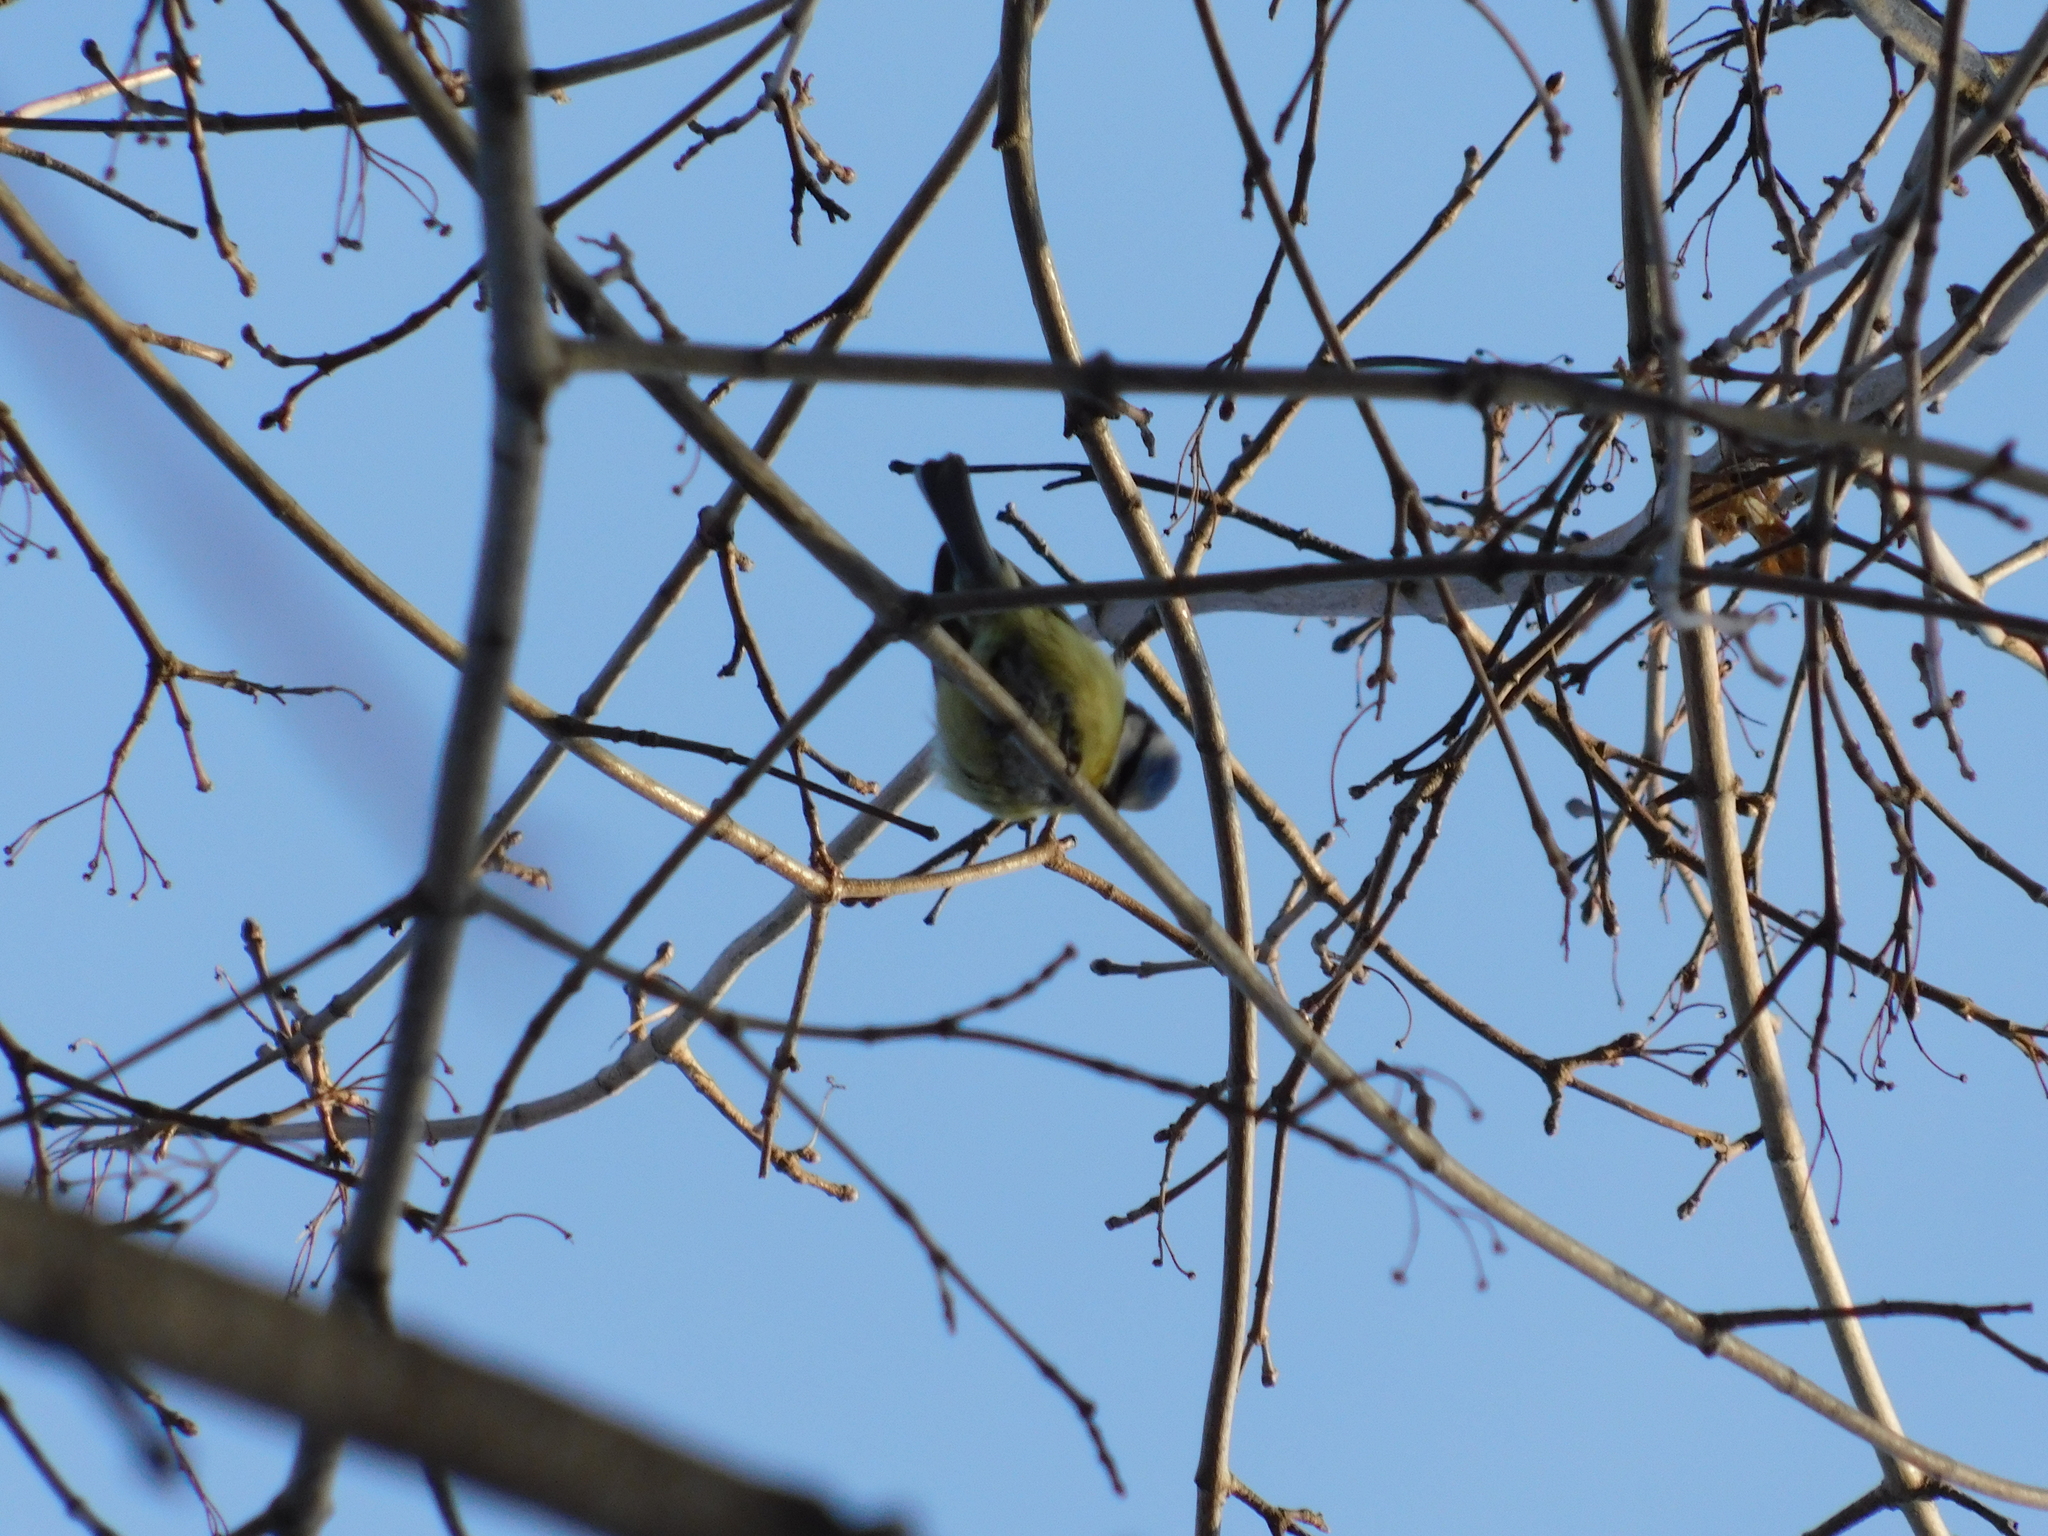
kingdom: Animalia
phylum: Chordata
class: Aves
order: Passeriformes
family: Paridae
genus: Cyanistes
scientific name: Cyanistes caeruleus
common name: Eurasian blue tit
